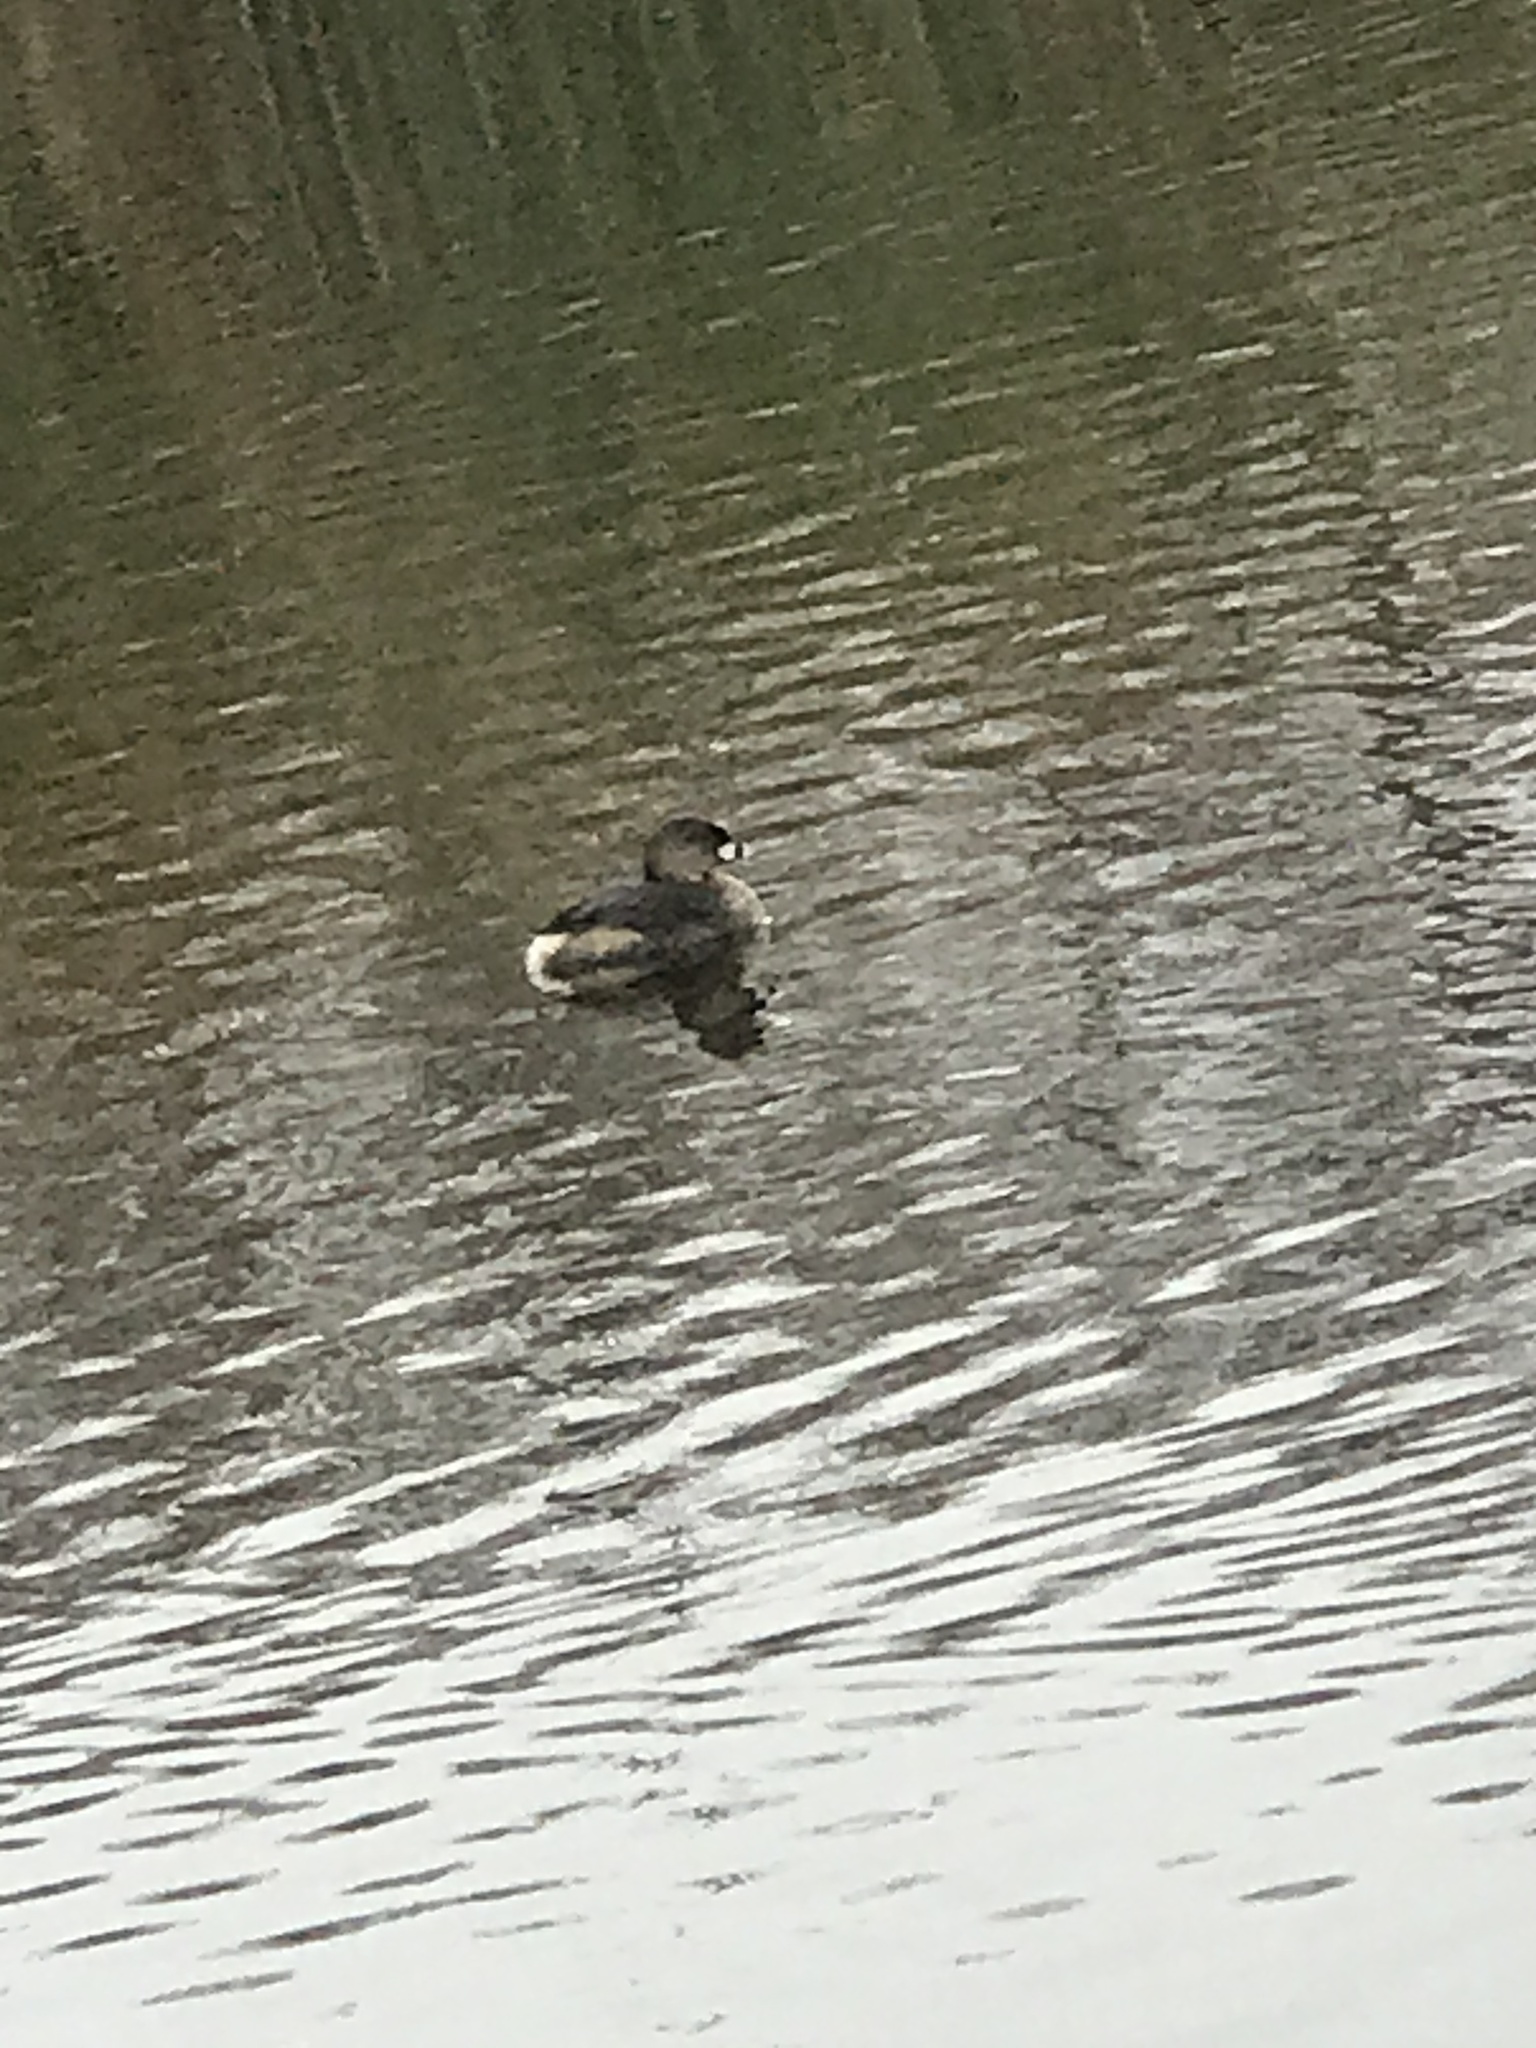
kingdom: Animalia
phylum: Chordata
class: Aves
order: Podicipediformes
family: Podicipedidae
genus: Podilymbus
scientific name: Podilymbus podiceps
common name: Pied-billed grebe
